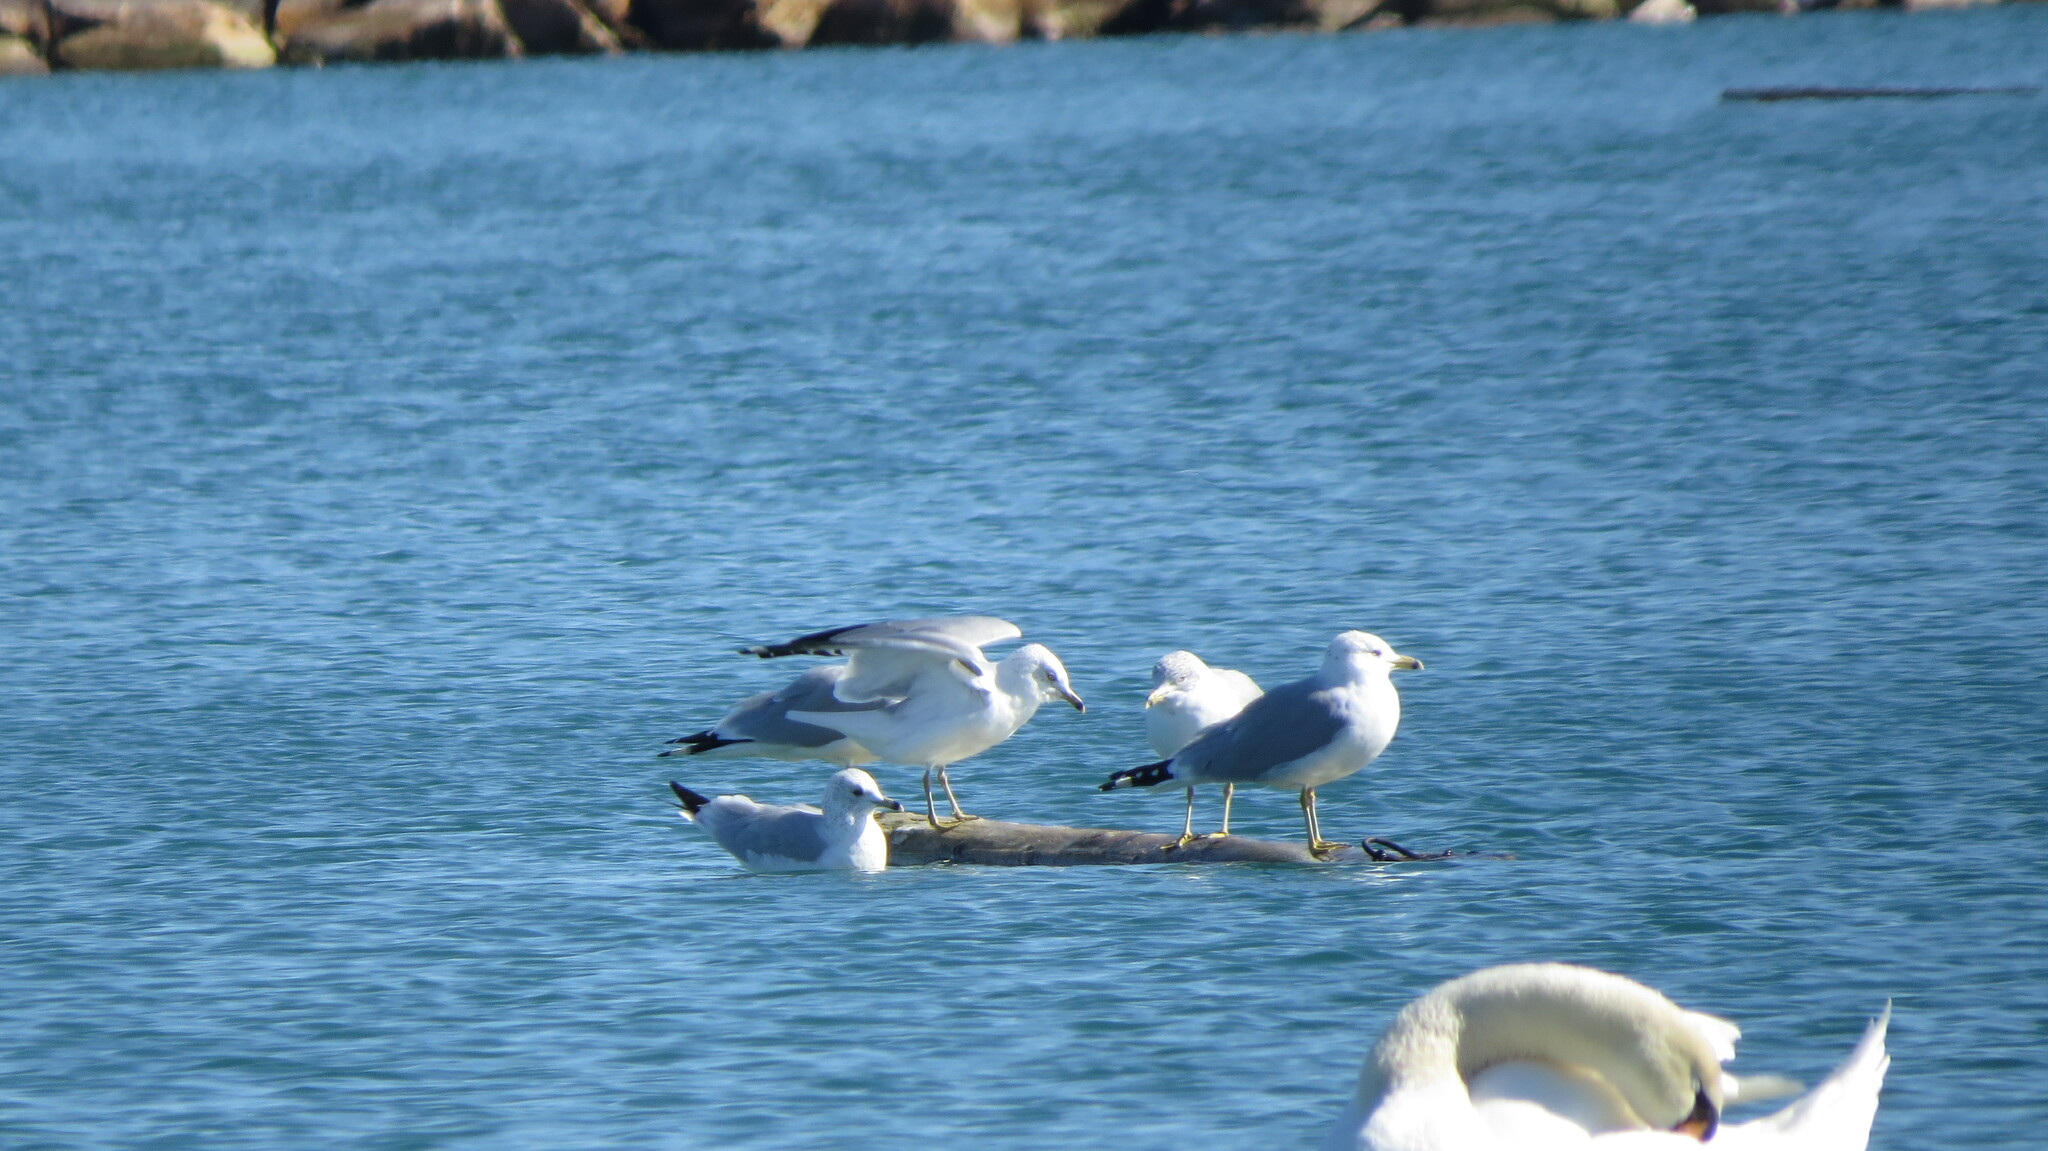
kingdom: Animalia
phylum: Chordata
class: Aves
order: Charadriiformes
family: Laridae
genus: Larus
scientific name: Larus delawarensis
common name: Ring-billed gull
